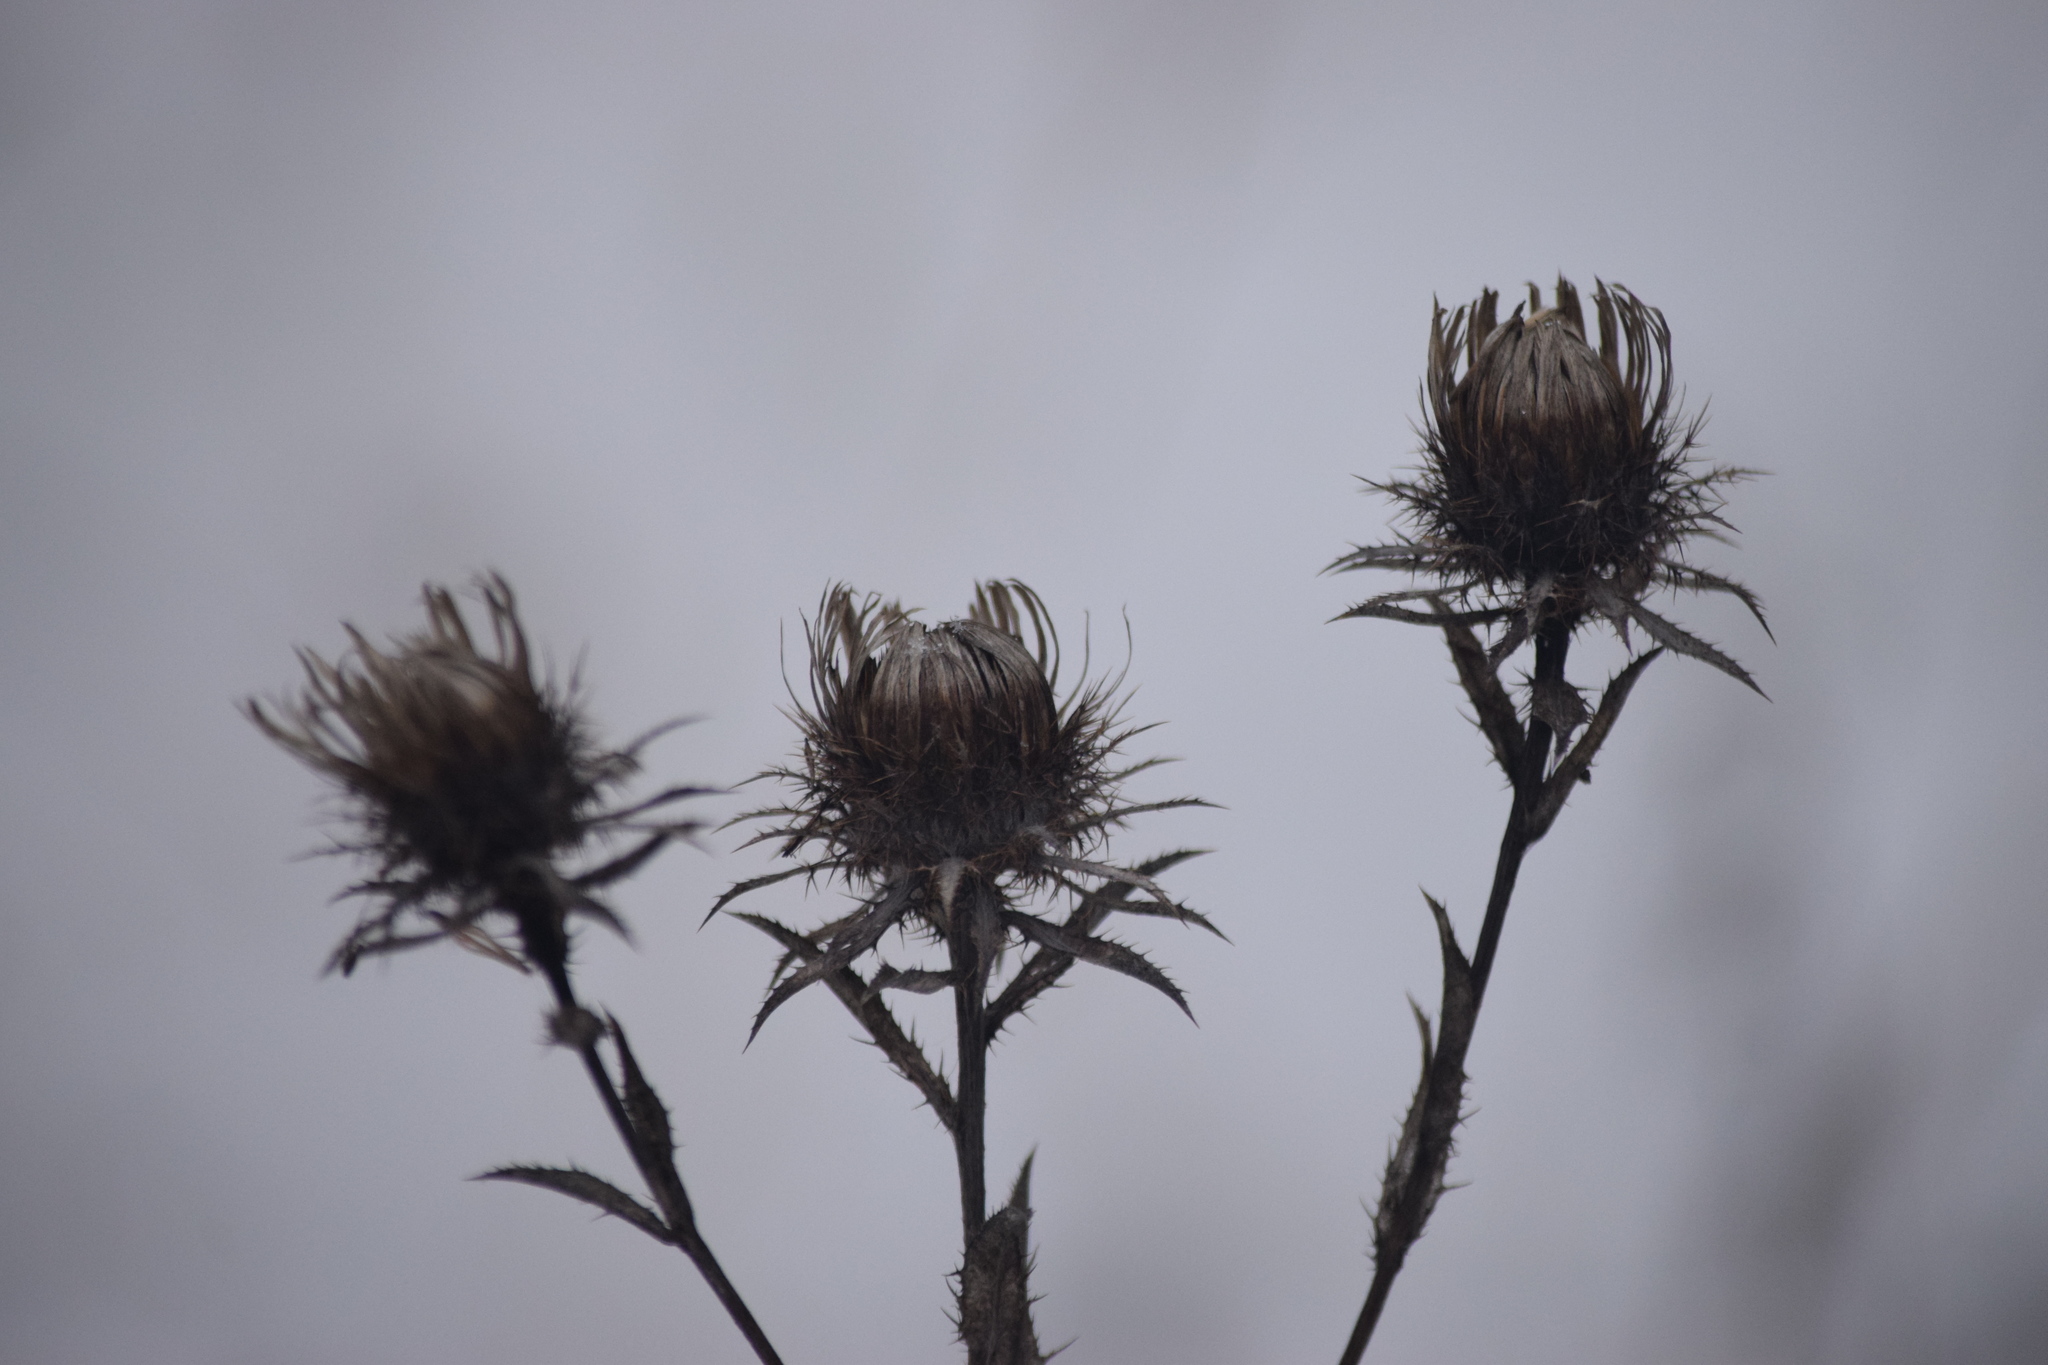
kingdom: Plantae
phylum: Tracheophyta
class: Magnoliopsida
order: Asterales
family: Asteraceae
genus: Carlina
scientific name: Carlina biebersteinii
